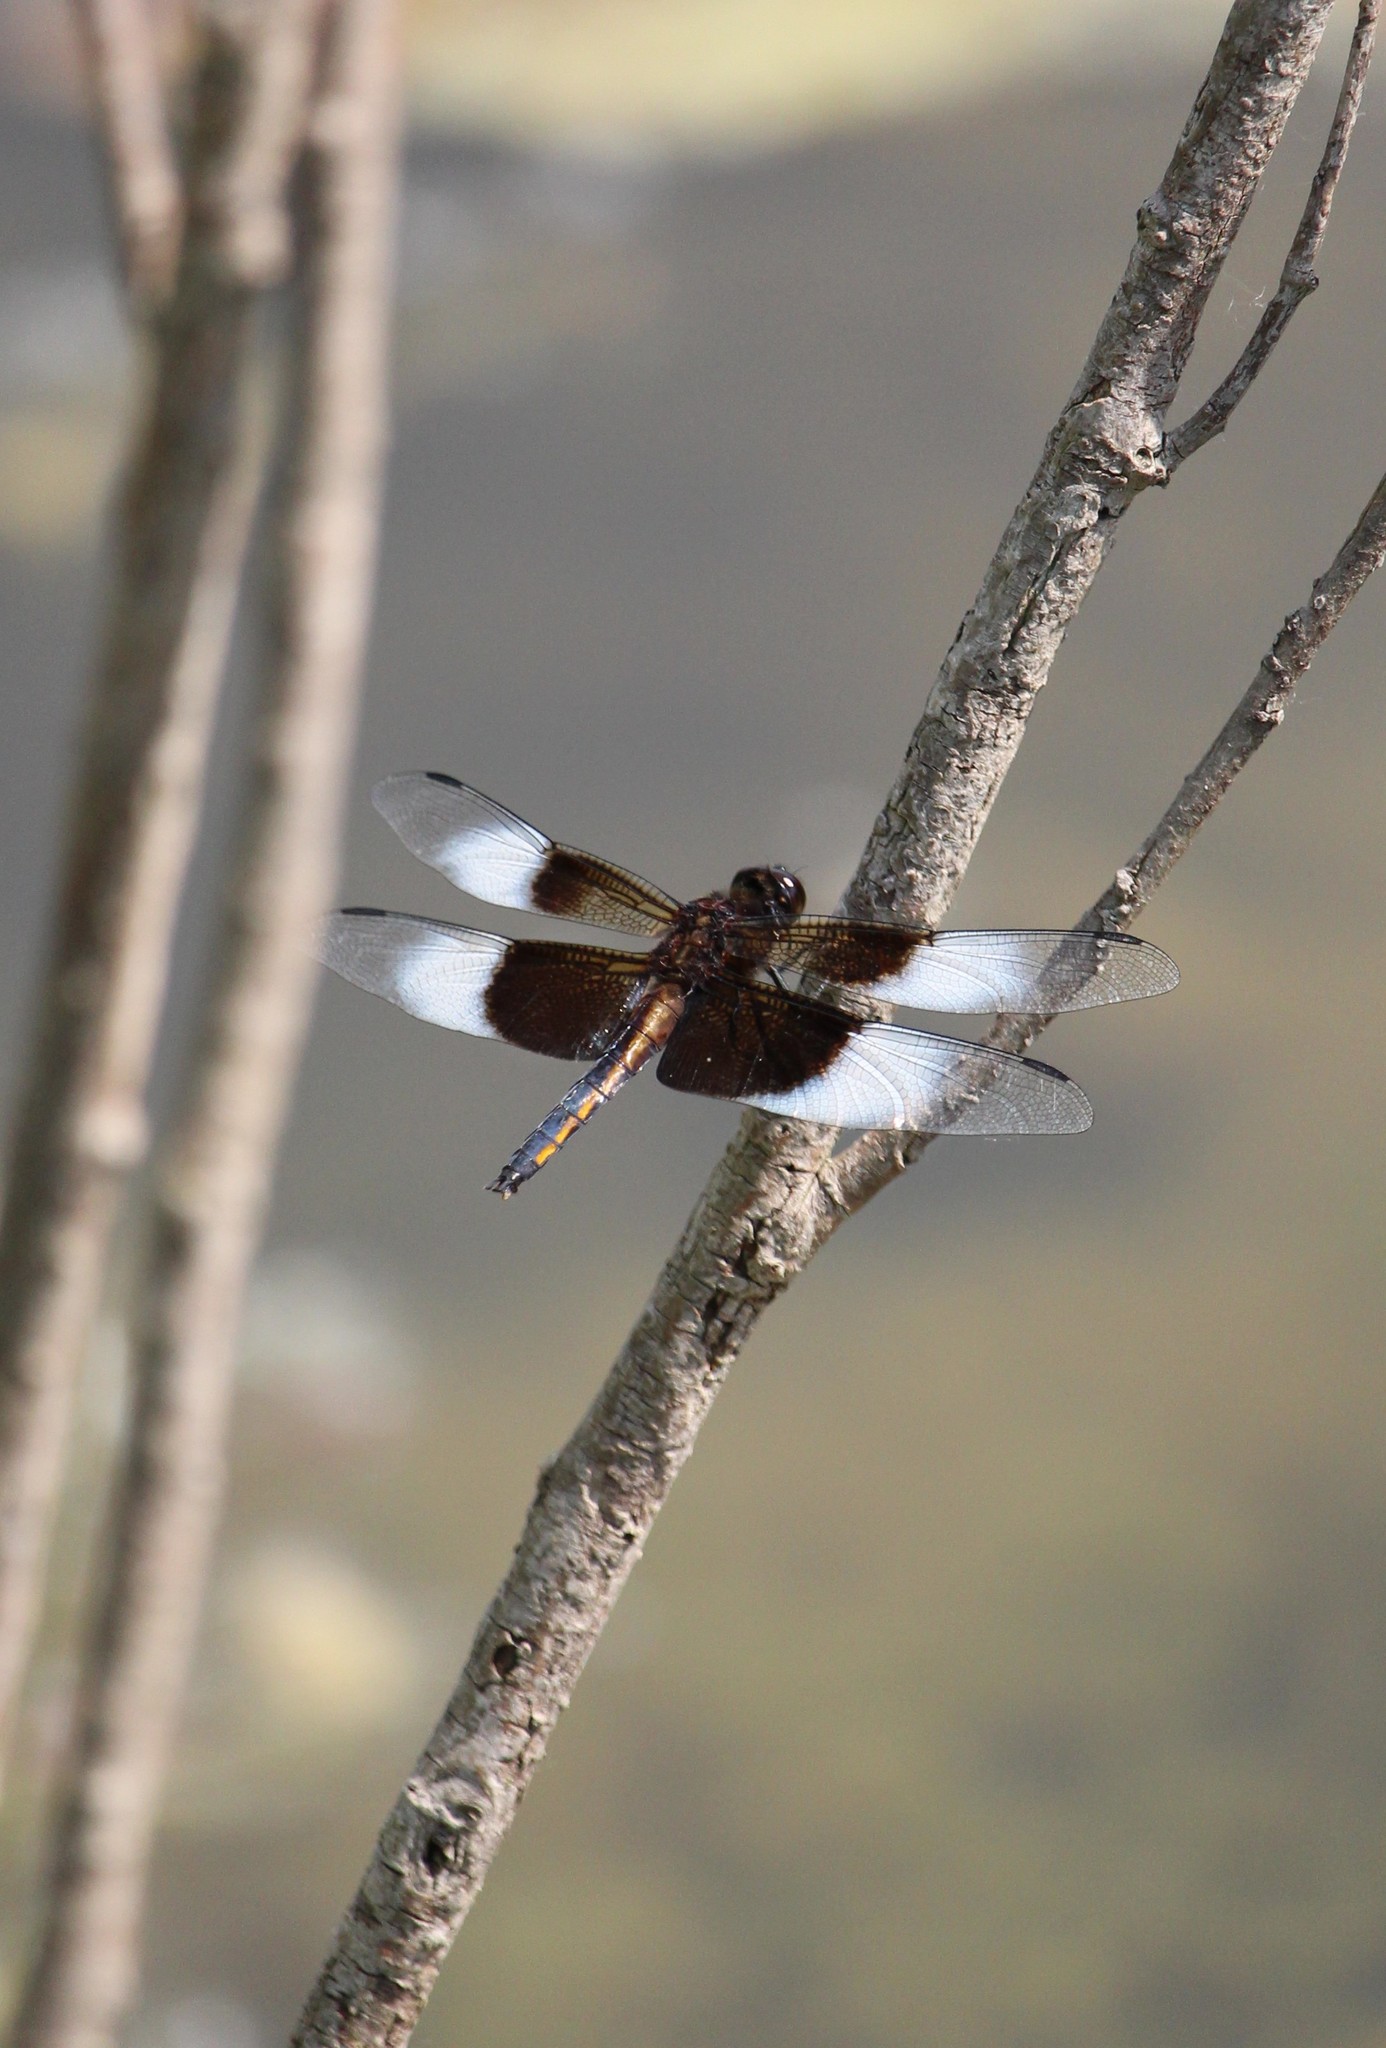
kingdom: Animalia
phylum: Arthropoda
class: Insecta
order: Odonata
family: Libellulidae
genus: Libellula
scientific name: Libellula luctuosa
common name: Widow skimmer
